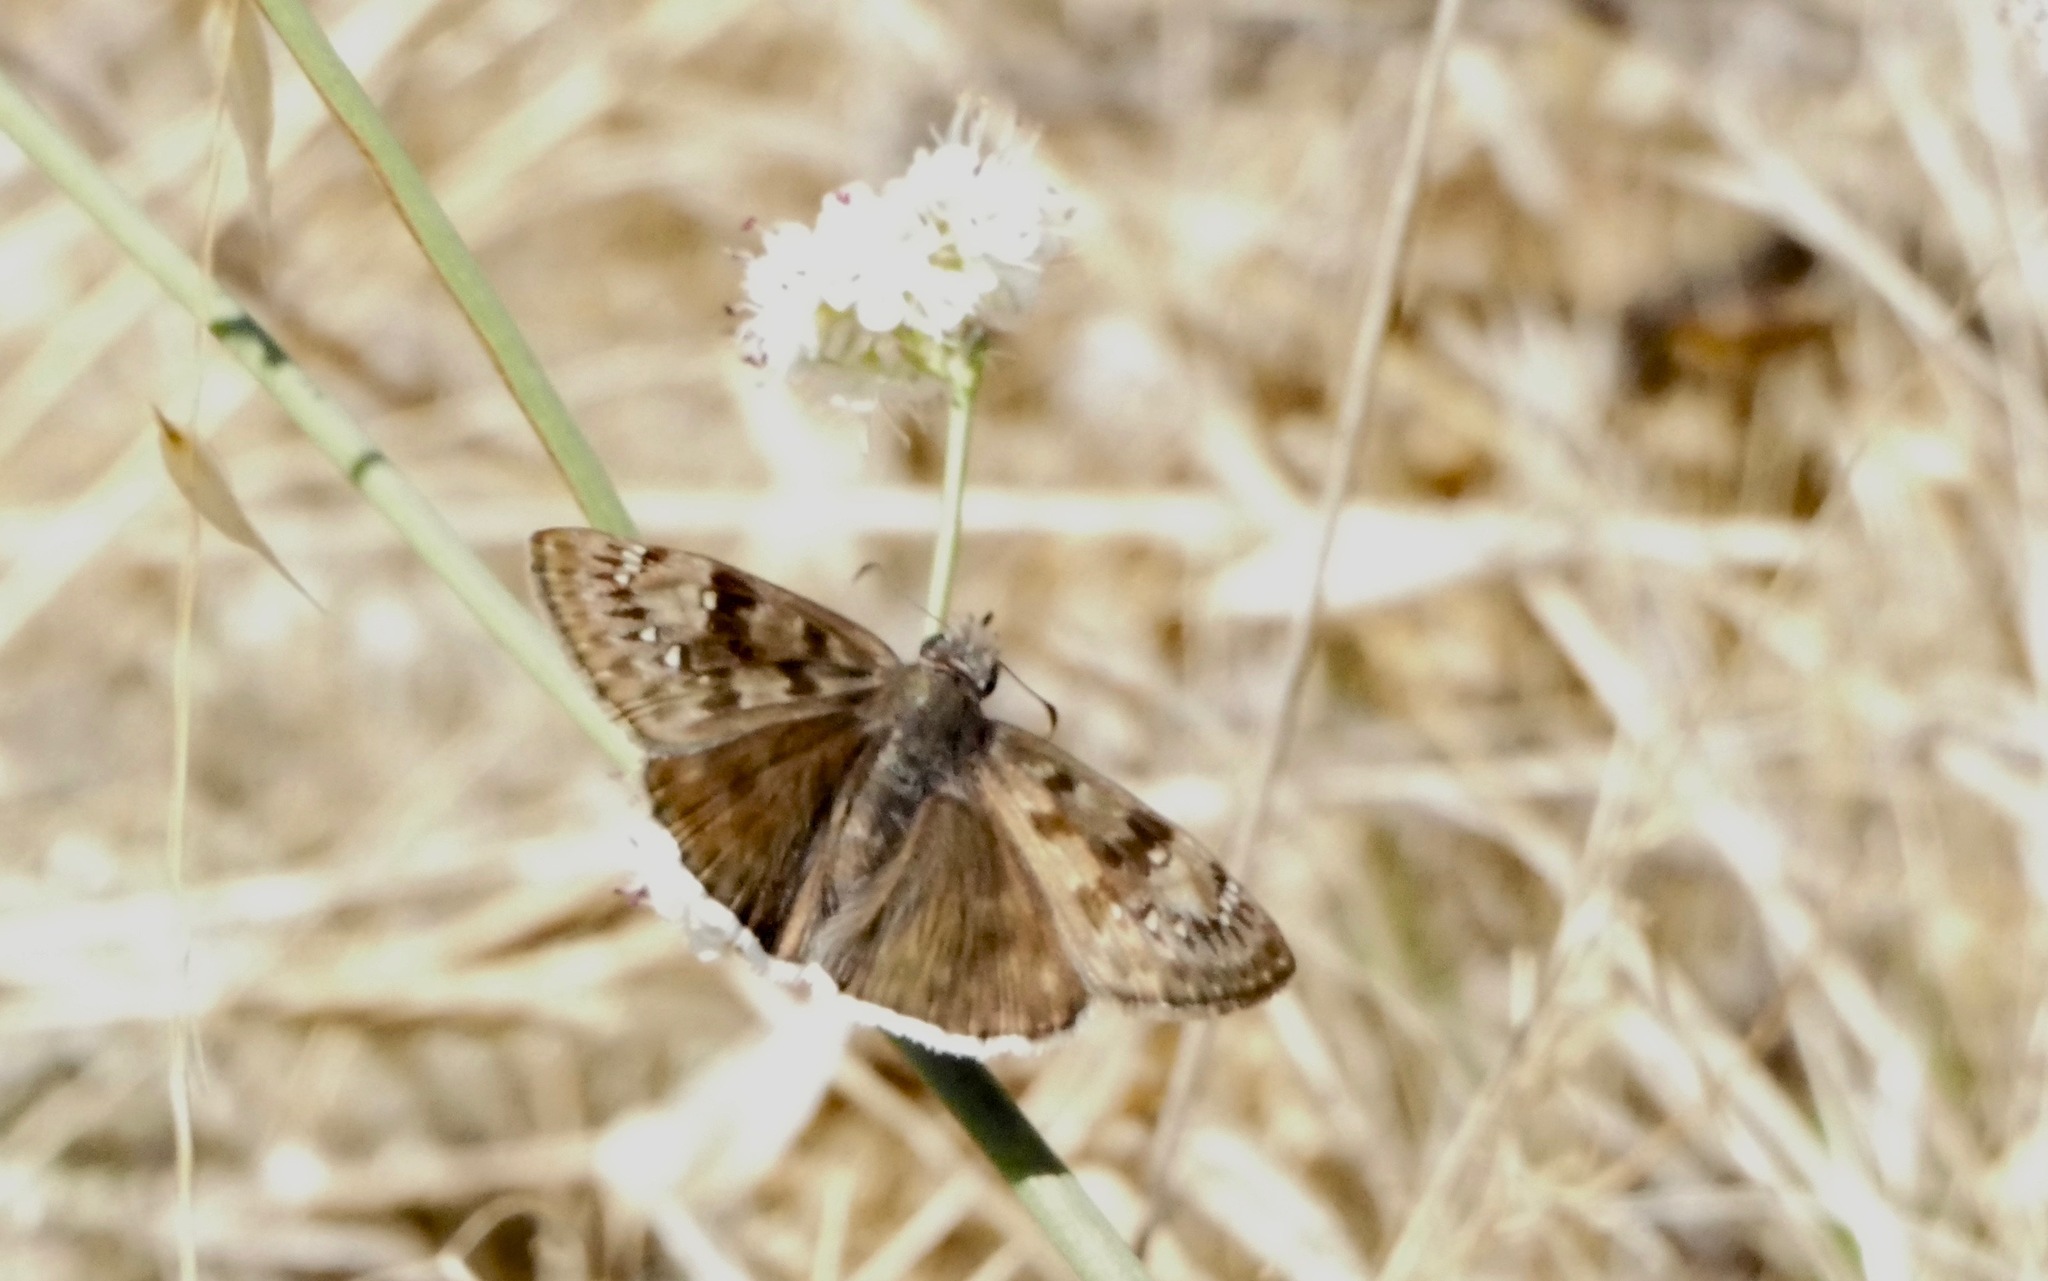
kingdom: Animalia
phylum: Arthropoda
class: Insecta
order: Lepidoptera
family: Hesperiidae
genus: Erynnis
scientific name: Erynnis tristis
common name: Mournful duskywing
